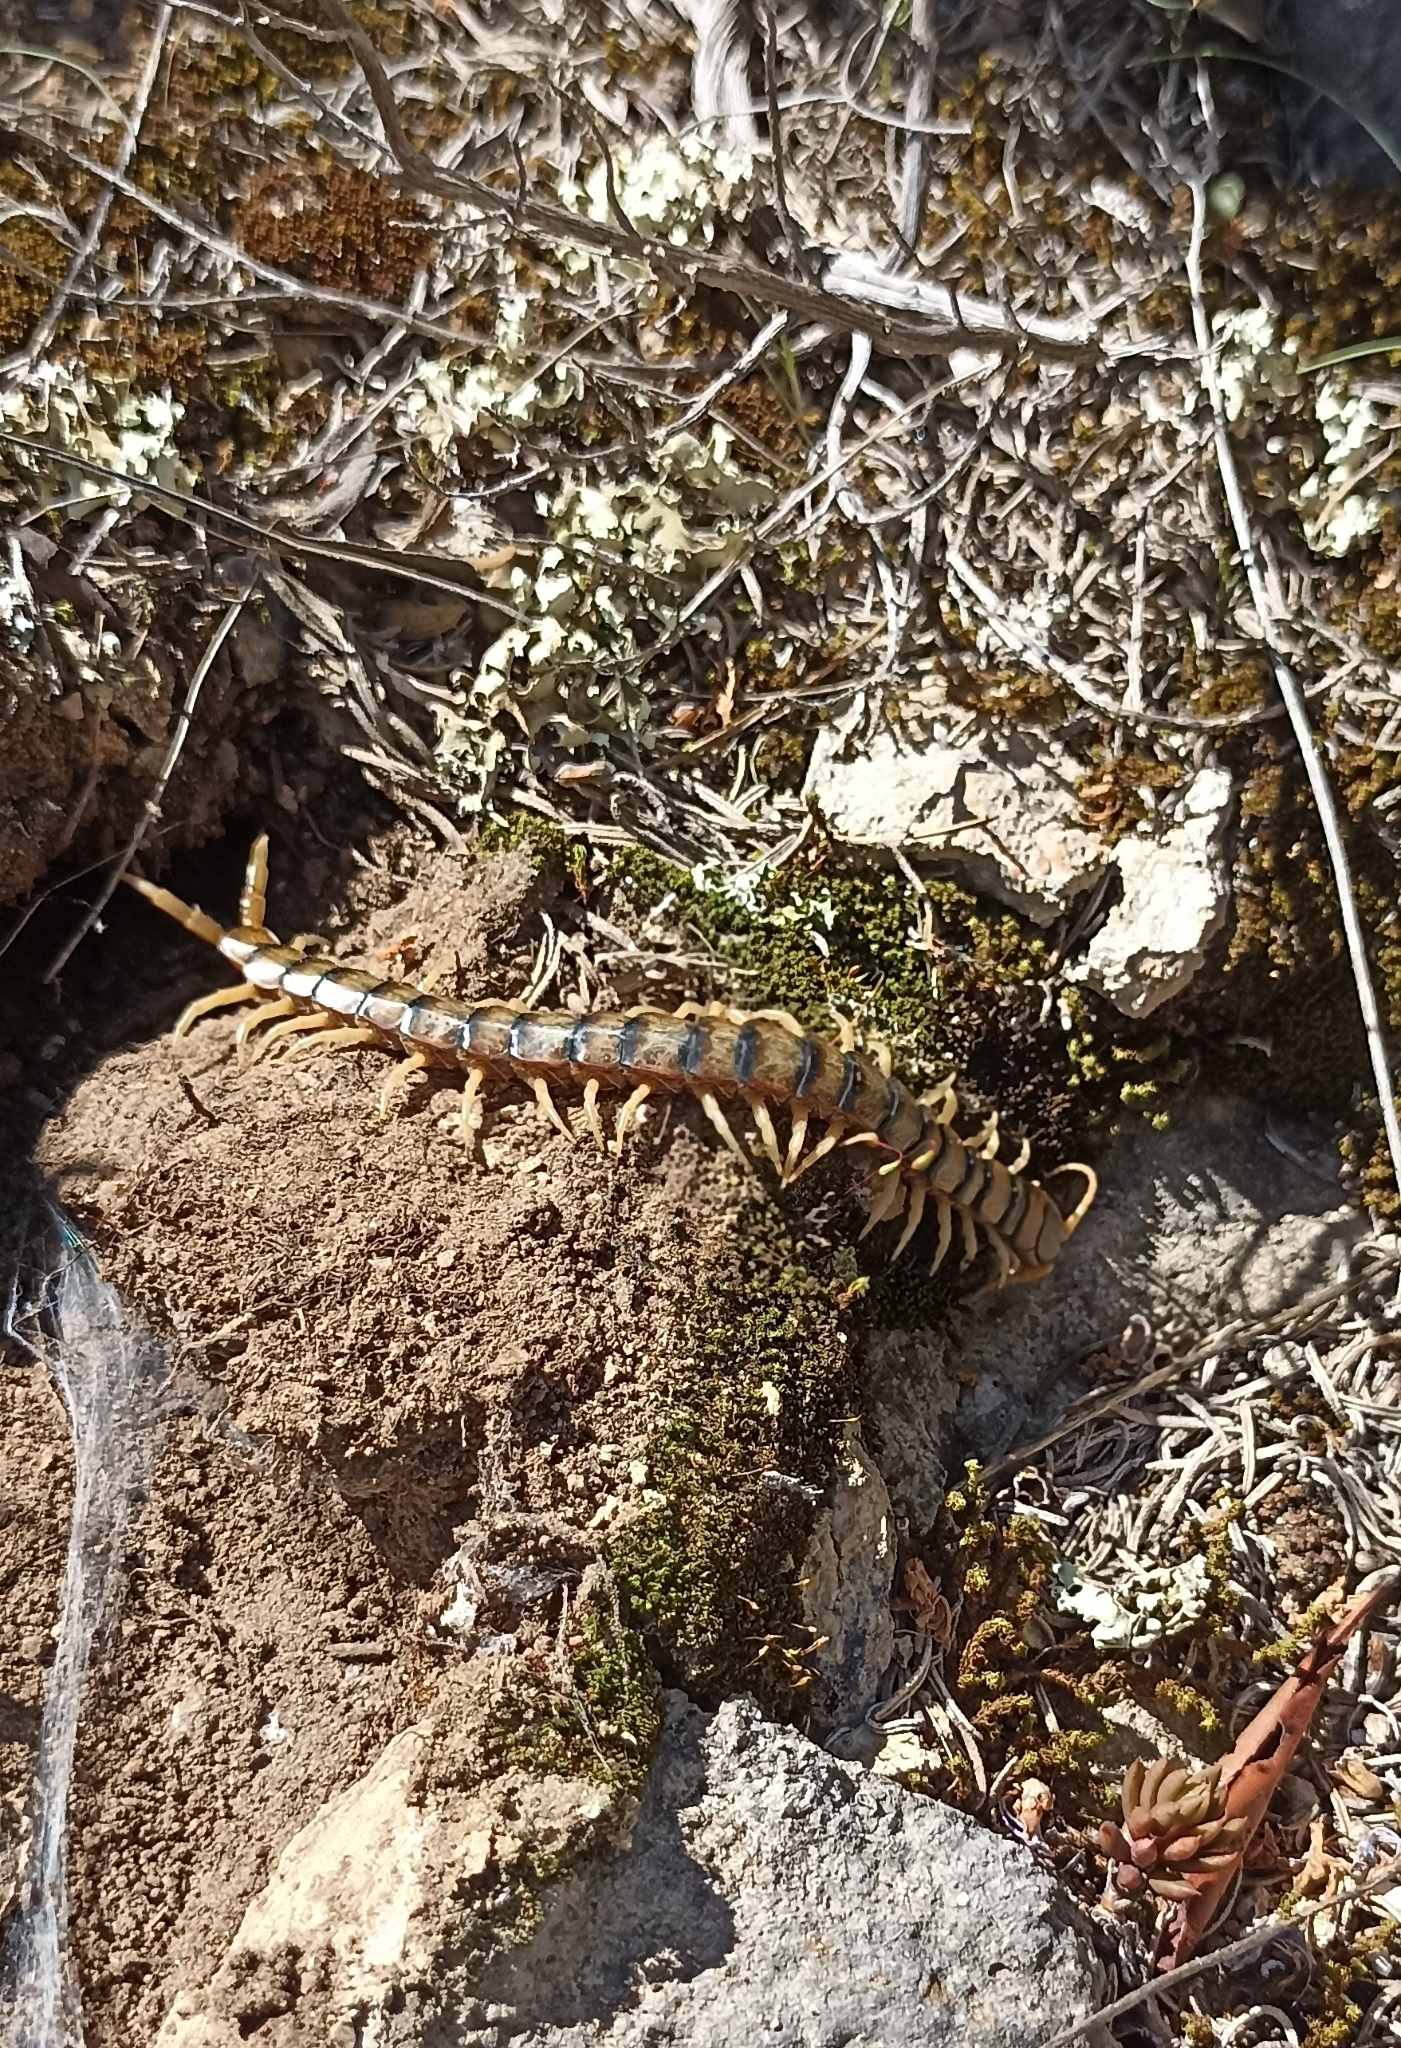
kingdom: Animalia
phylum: Arthropoda
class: Chilopoda
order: Scolopendromorpha
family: Scolopendridae
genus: Scolopendra
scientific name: Scolopendra cingulata
